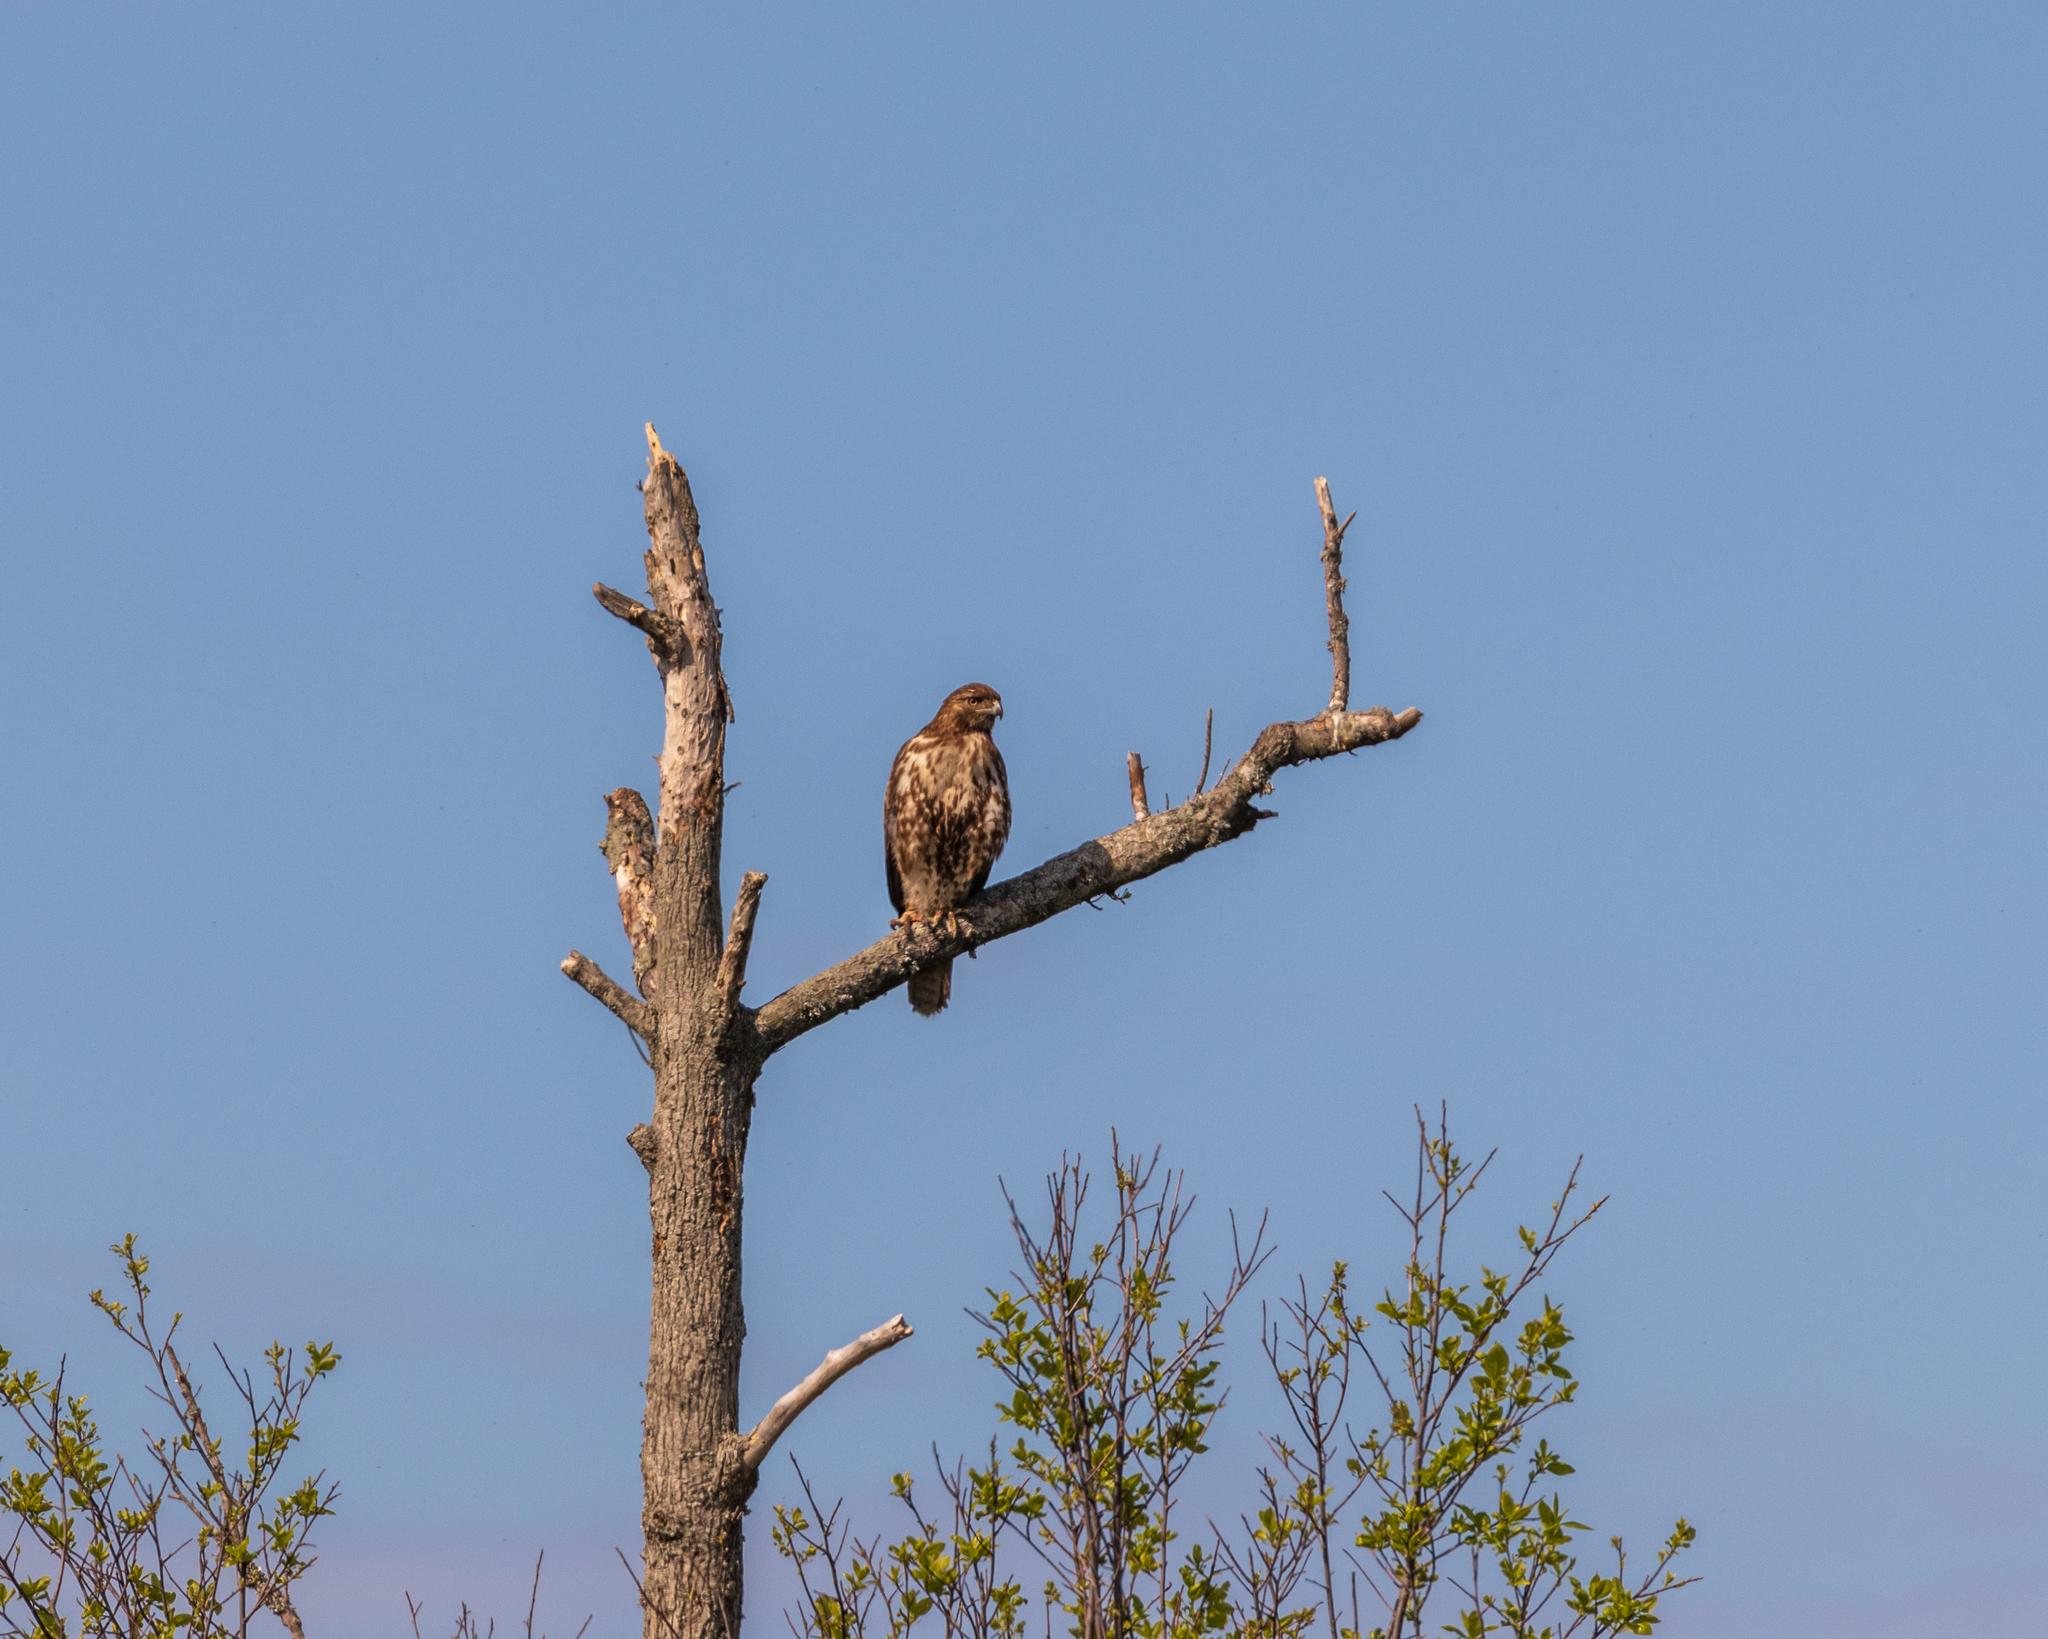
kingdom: Animalia
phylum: Chordata
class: Aves
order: Accipitriformes
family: Accipitridae
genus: Buteo
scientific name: Buteo jamaicensis
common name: Red-tailed hawk
